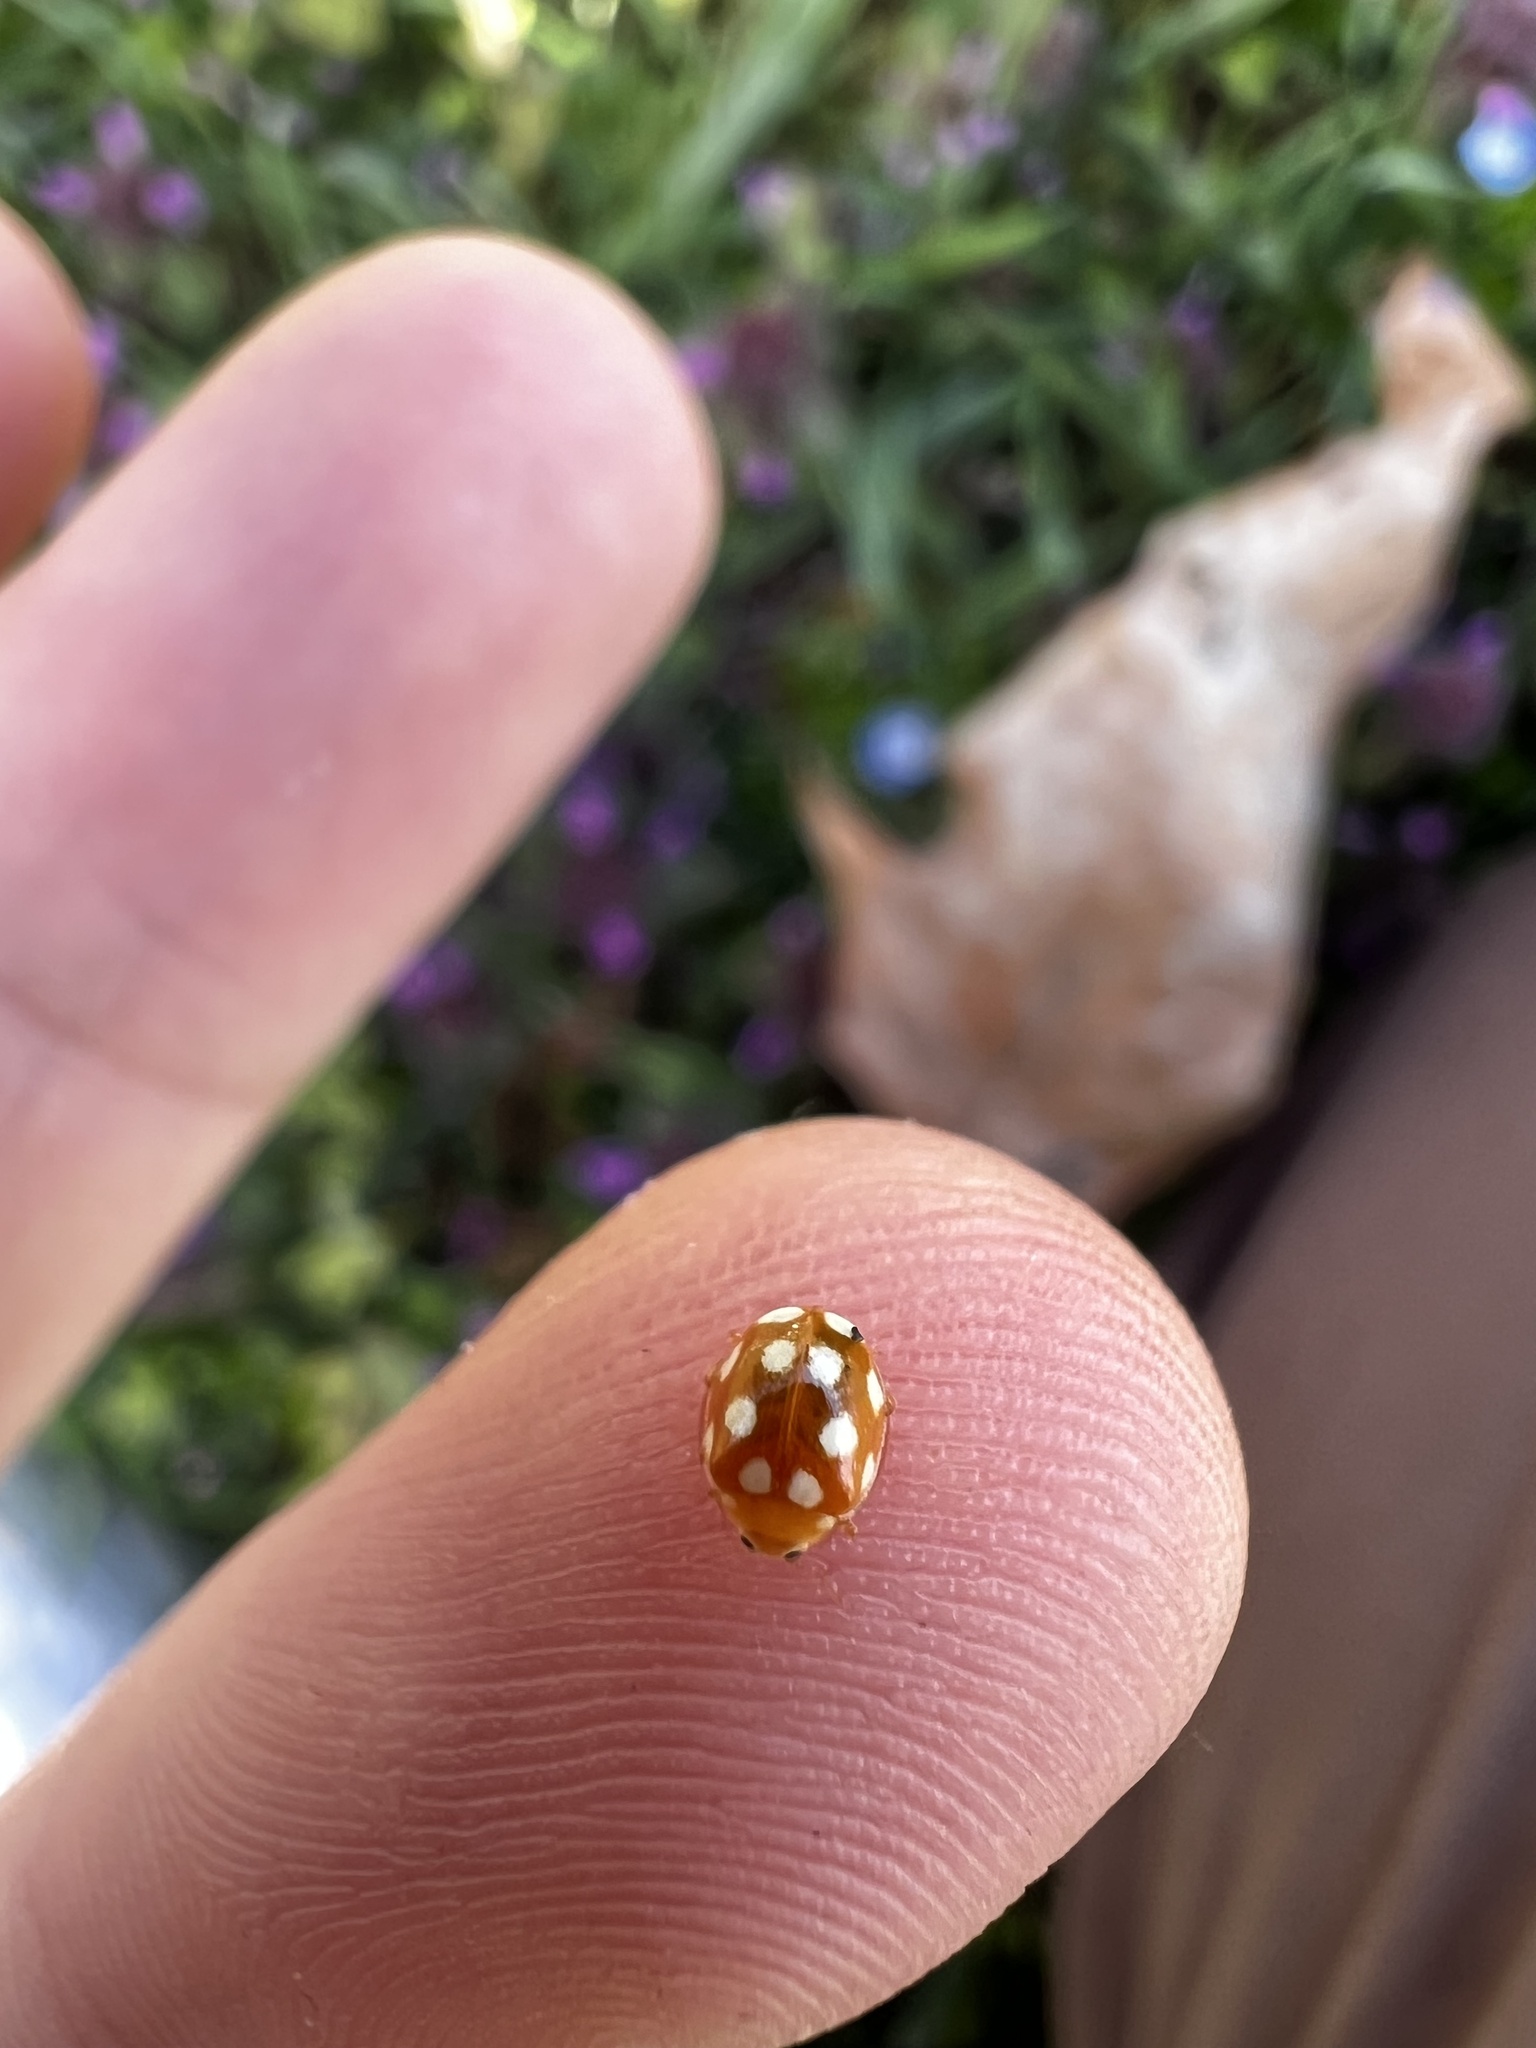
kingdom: Animalia
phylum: Arthropoda
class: Insecta
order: Coleoptera
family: Coccinellidae
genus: Vibidia
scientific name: Vibidia duodecimguttata
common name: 12-spot ladybird
